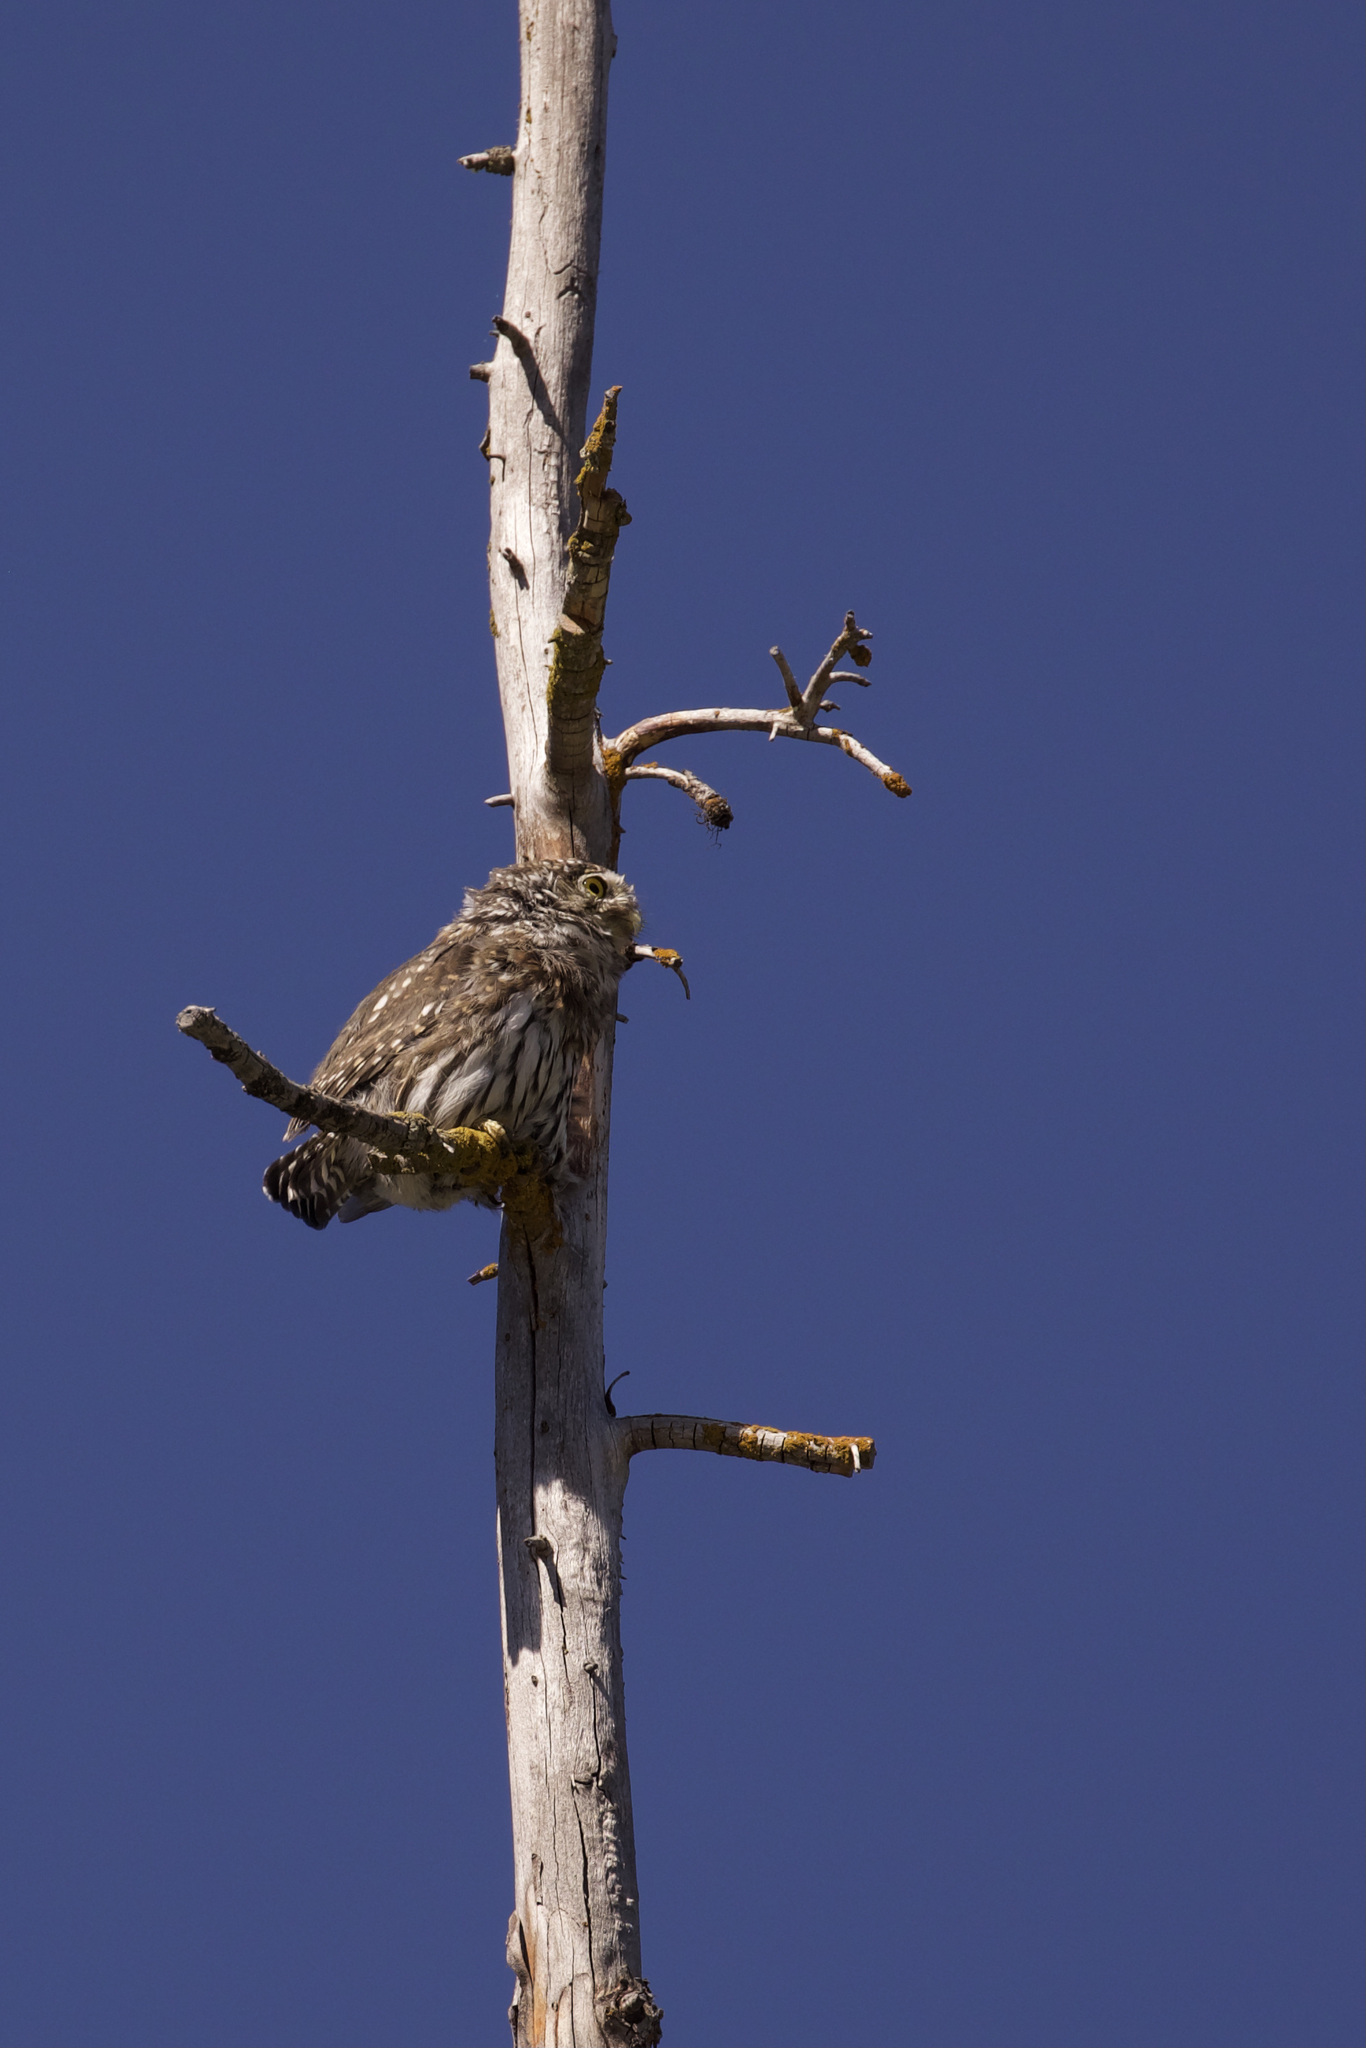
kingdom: Animalia
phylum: Chordata
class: Aves
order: Strigiformes
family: Strigidae
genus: Glaucidium
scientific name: Glaucidium gnoma
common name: Northern pygmy-owl
